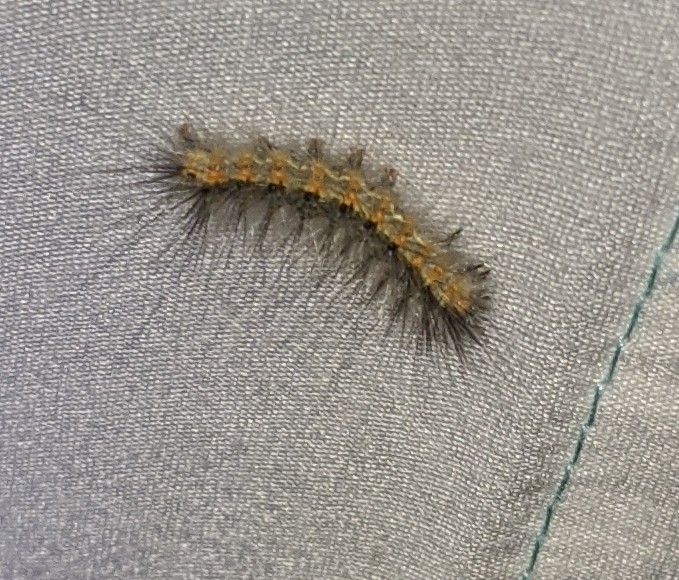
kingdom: Animalia
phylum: Arthropoda
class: Insecta
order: Lepidoptera
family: Erebidae
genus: Hyphantria
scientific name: Hyphantria cunea
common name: American white moth
